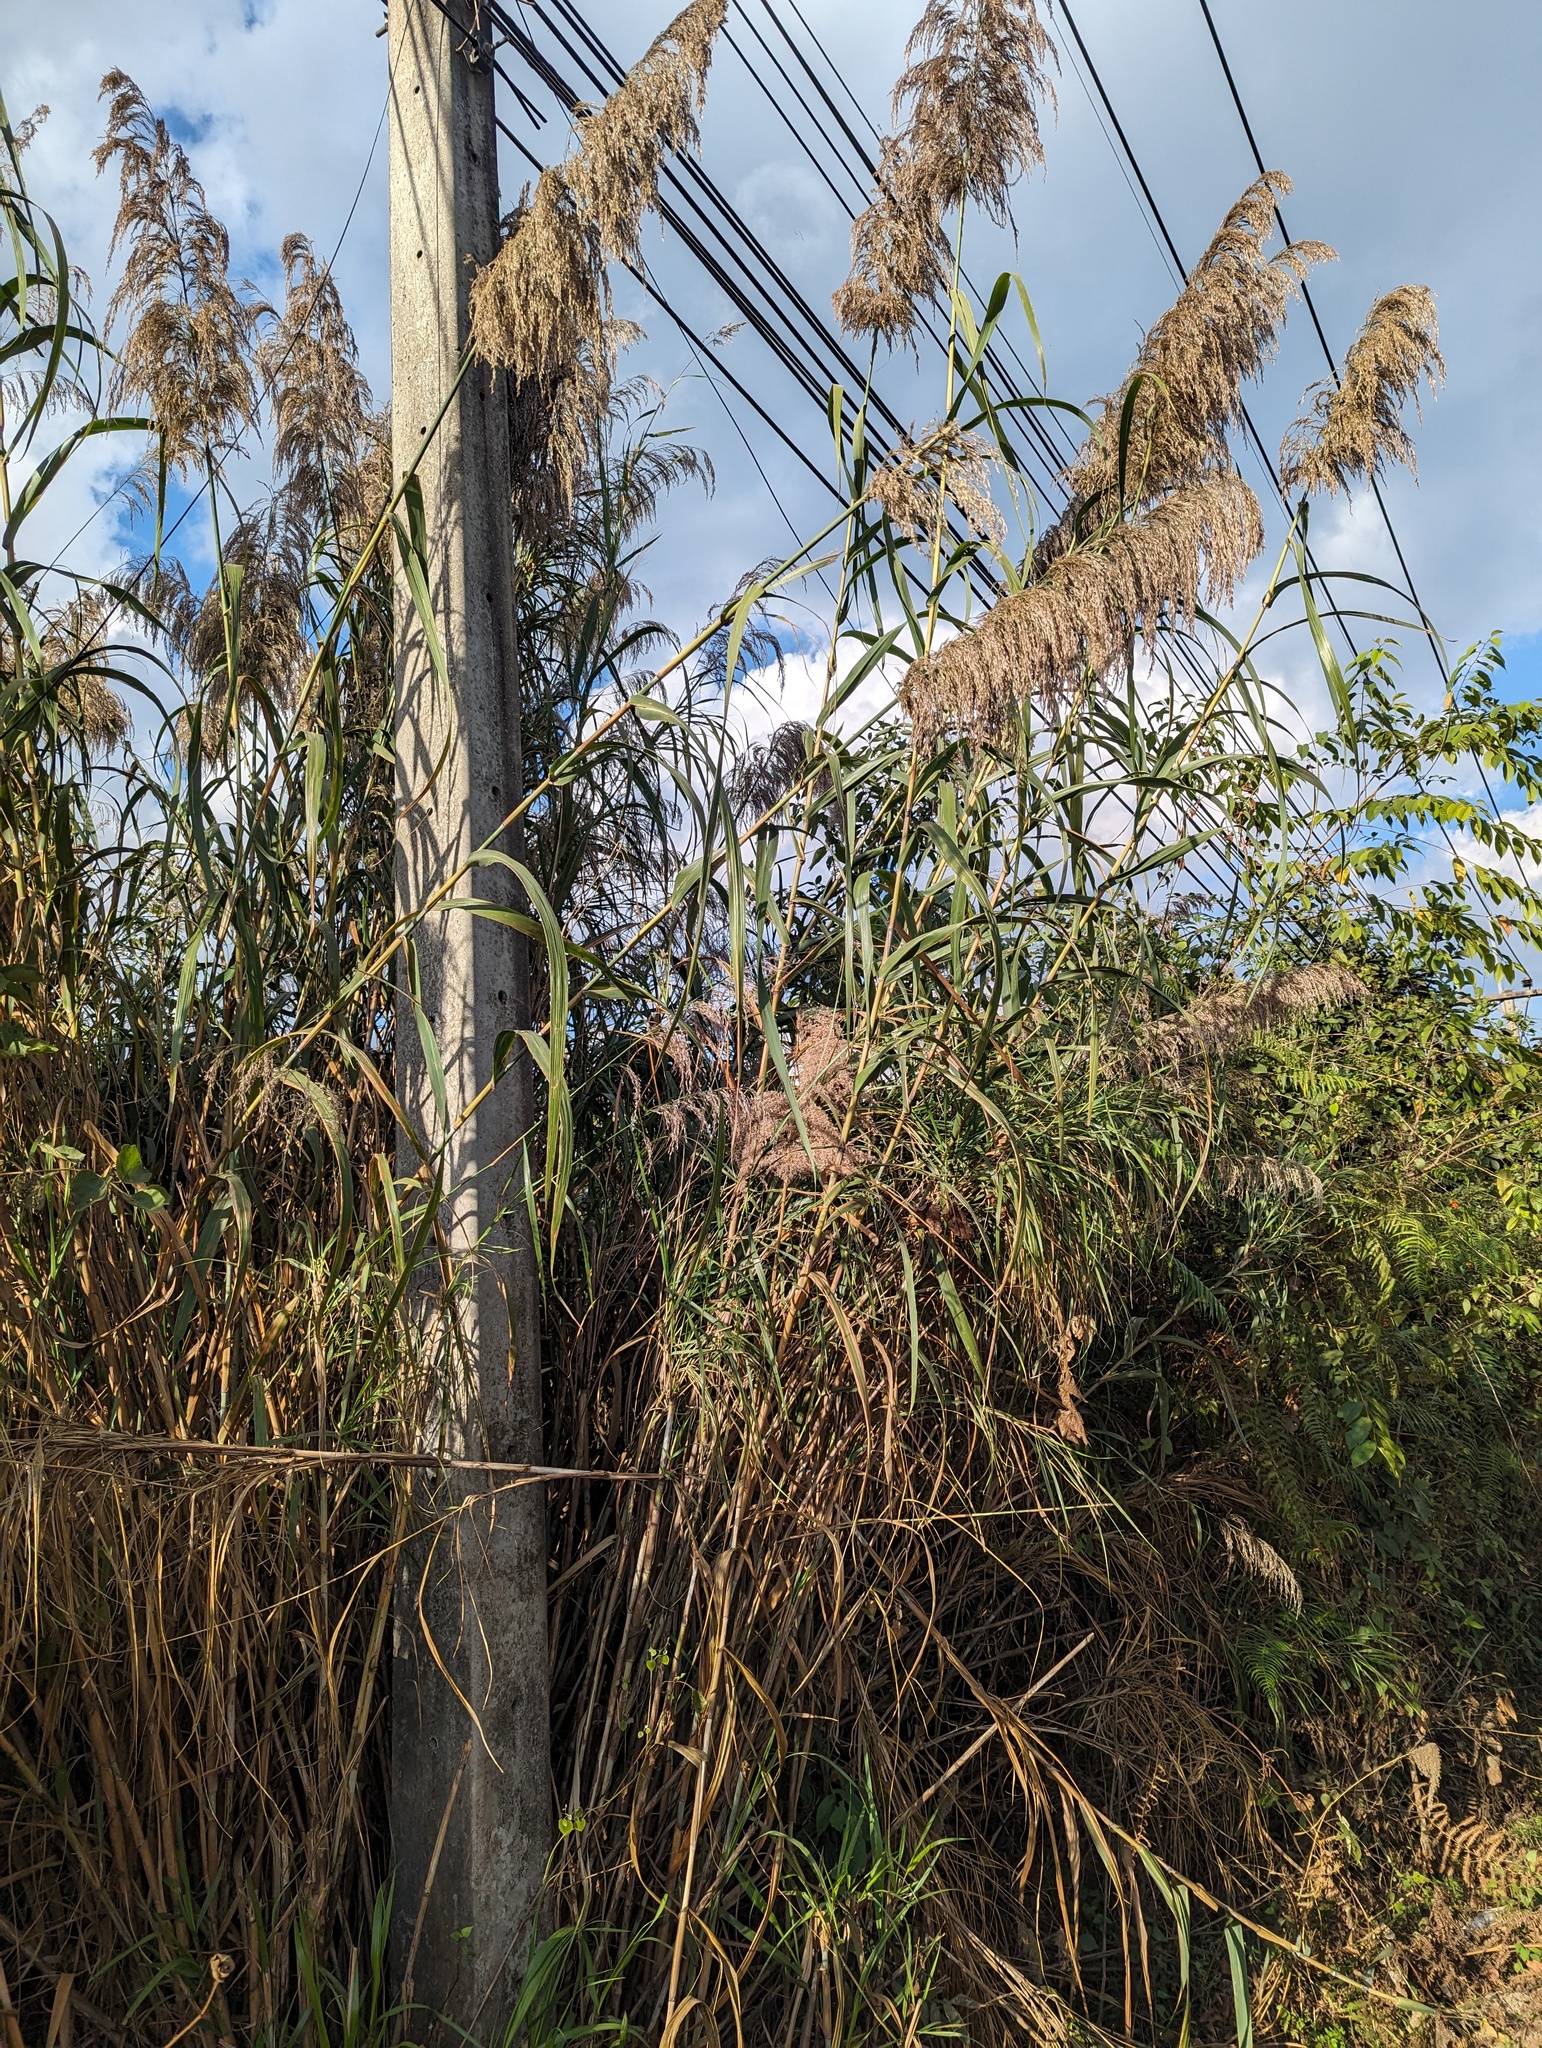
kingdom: Plantae
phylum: Tracheophyta
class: Liliopsida
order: Poales
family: Poaceae
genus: Arundo
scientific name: Arundo donax
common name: Giant reed
